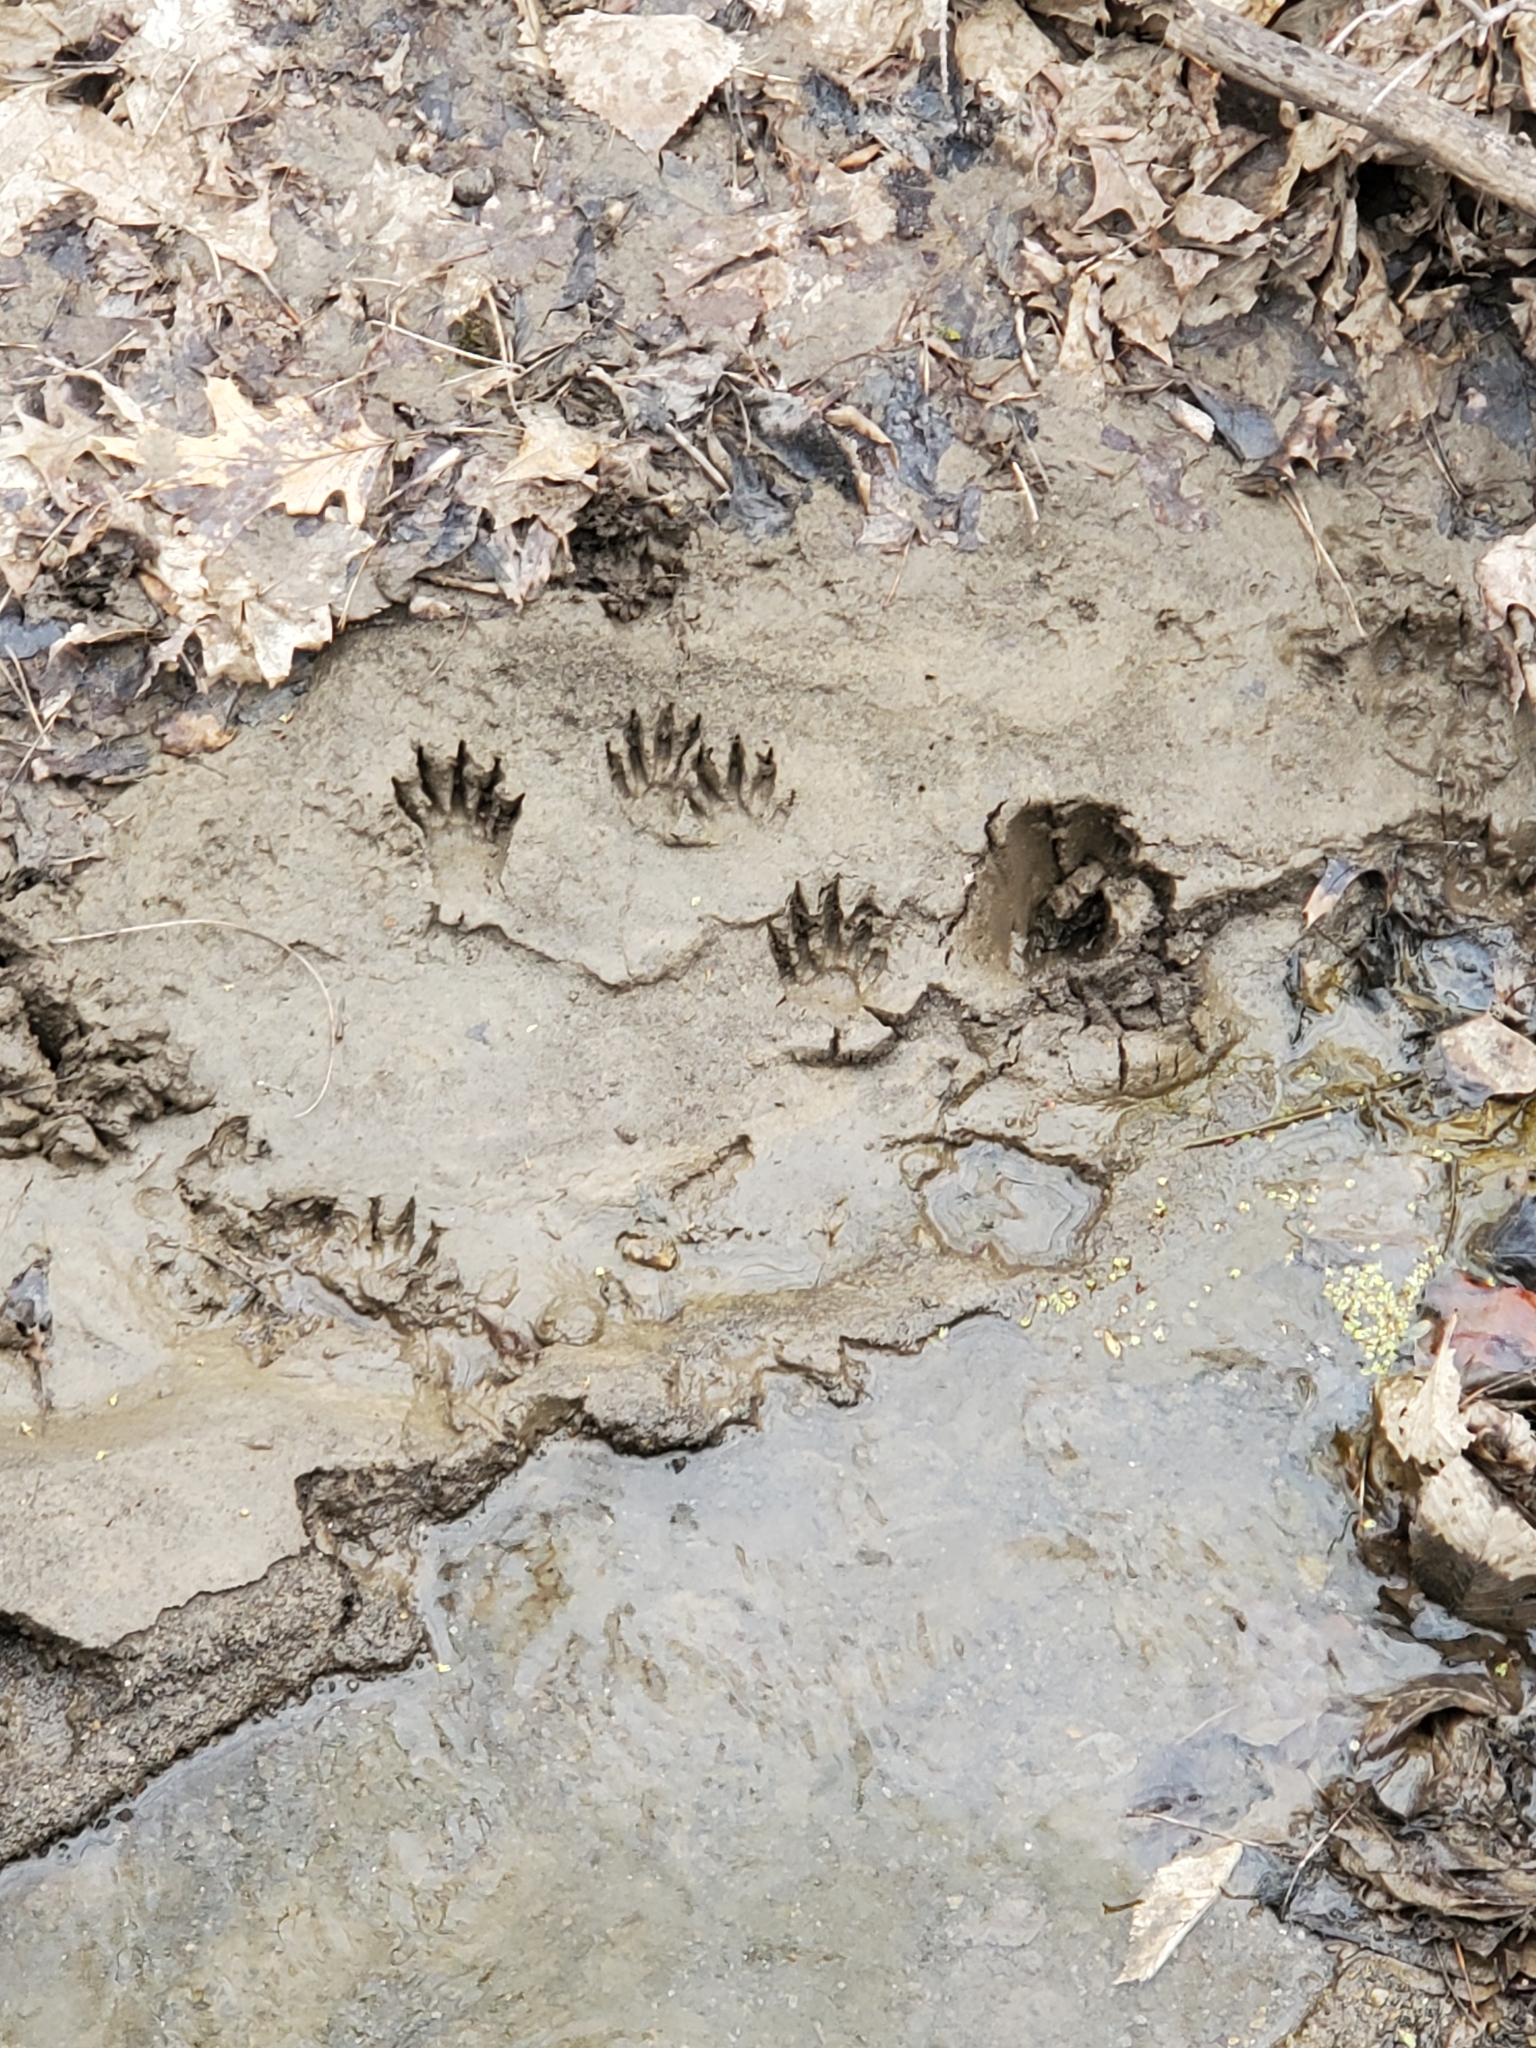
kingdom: Animalia
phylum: Chordata
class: Mammalia
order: Carnivora
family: Procyonidae
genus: Procyon
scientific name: Procyon lotor
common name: Raccoon
